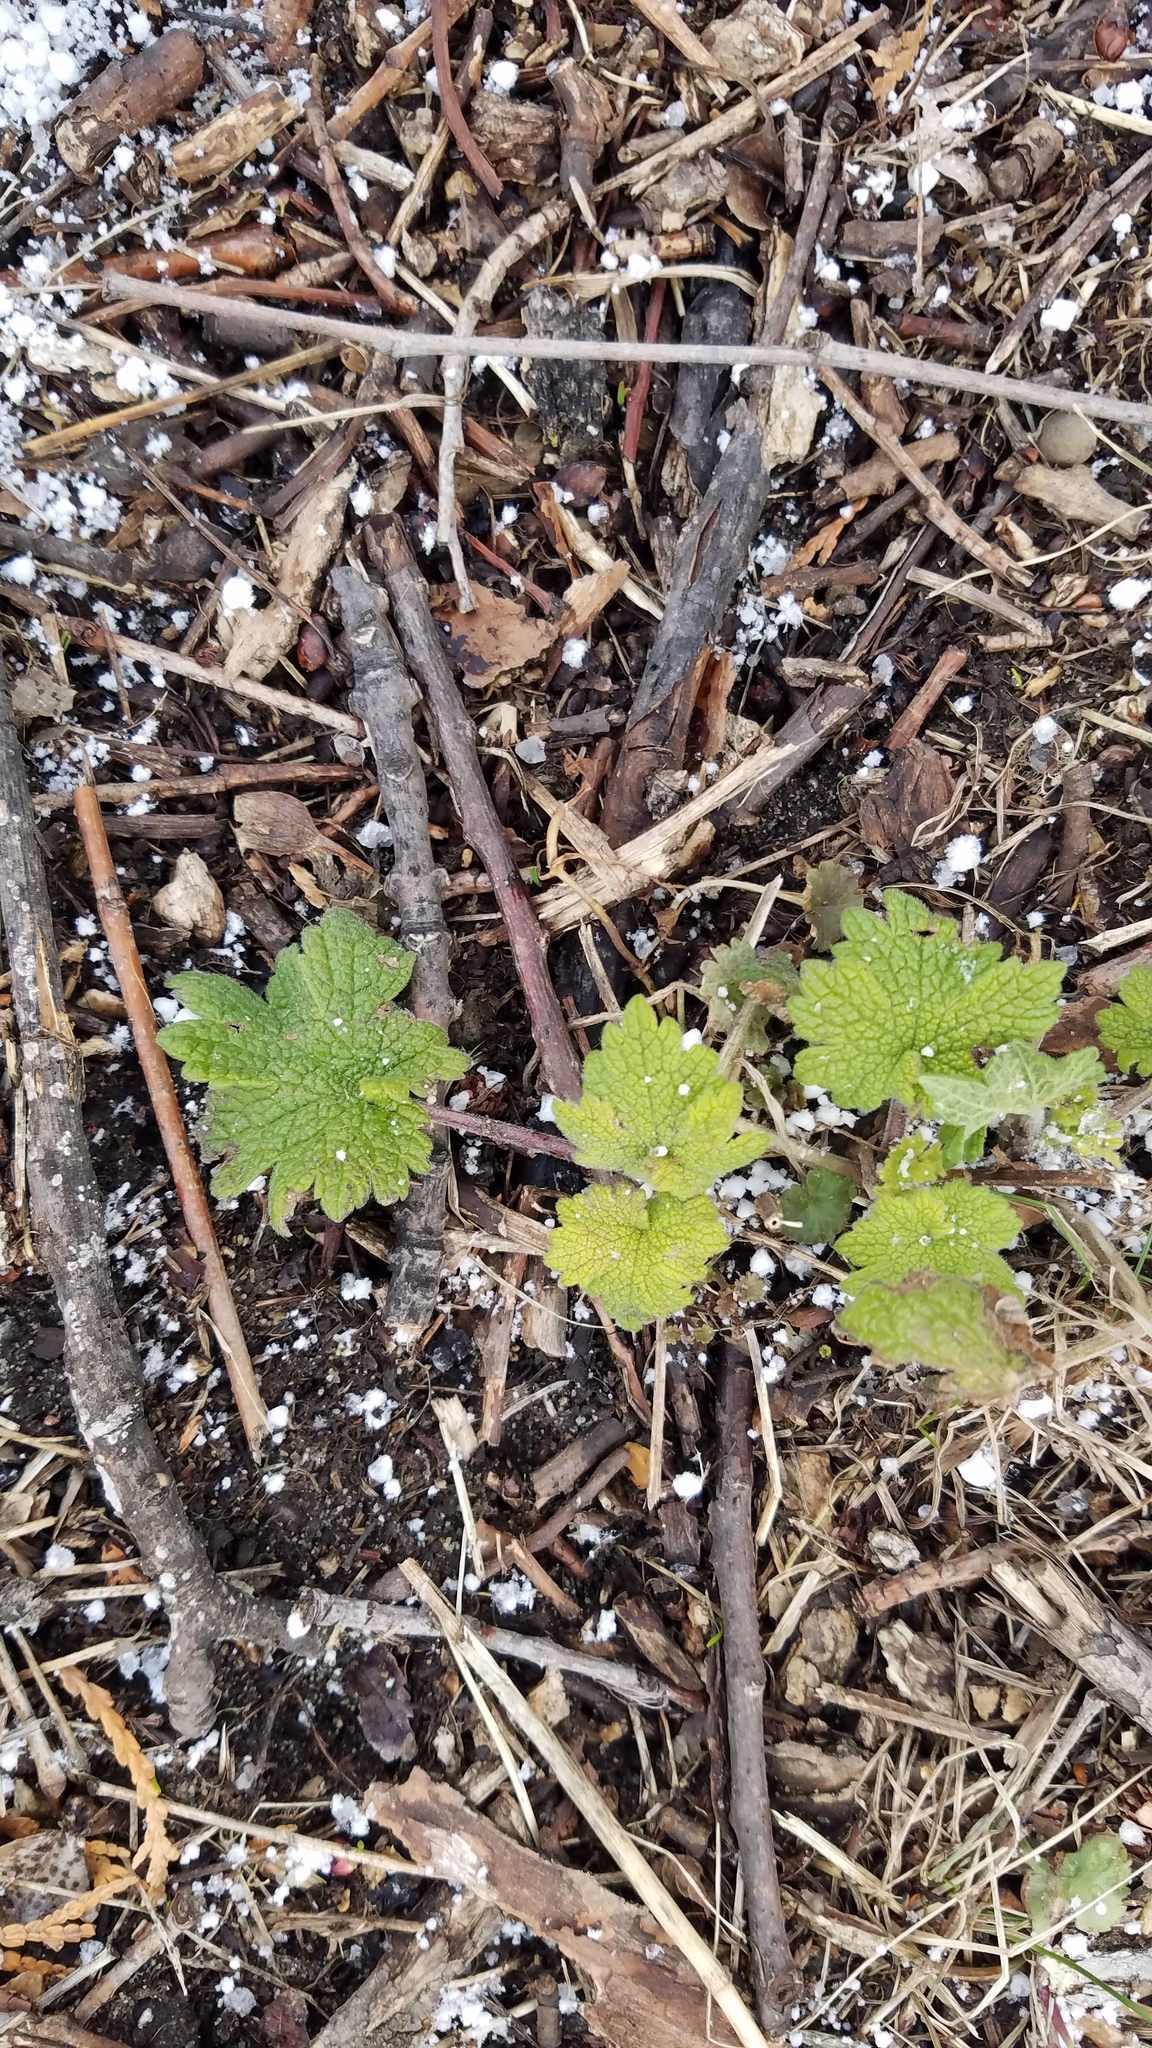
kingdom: Plantae
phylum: Tracheophyta
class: Magnoliopsida
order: Lamiales
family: Lamiaceae
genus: Leonurus
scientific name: Leonurus cardiaca
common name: Motherwort
